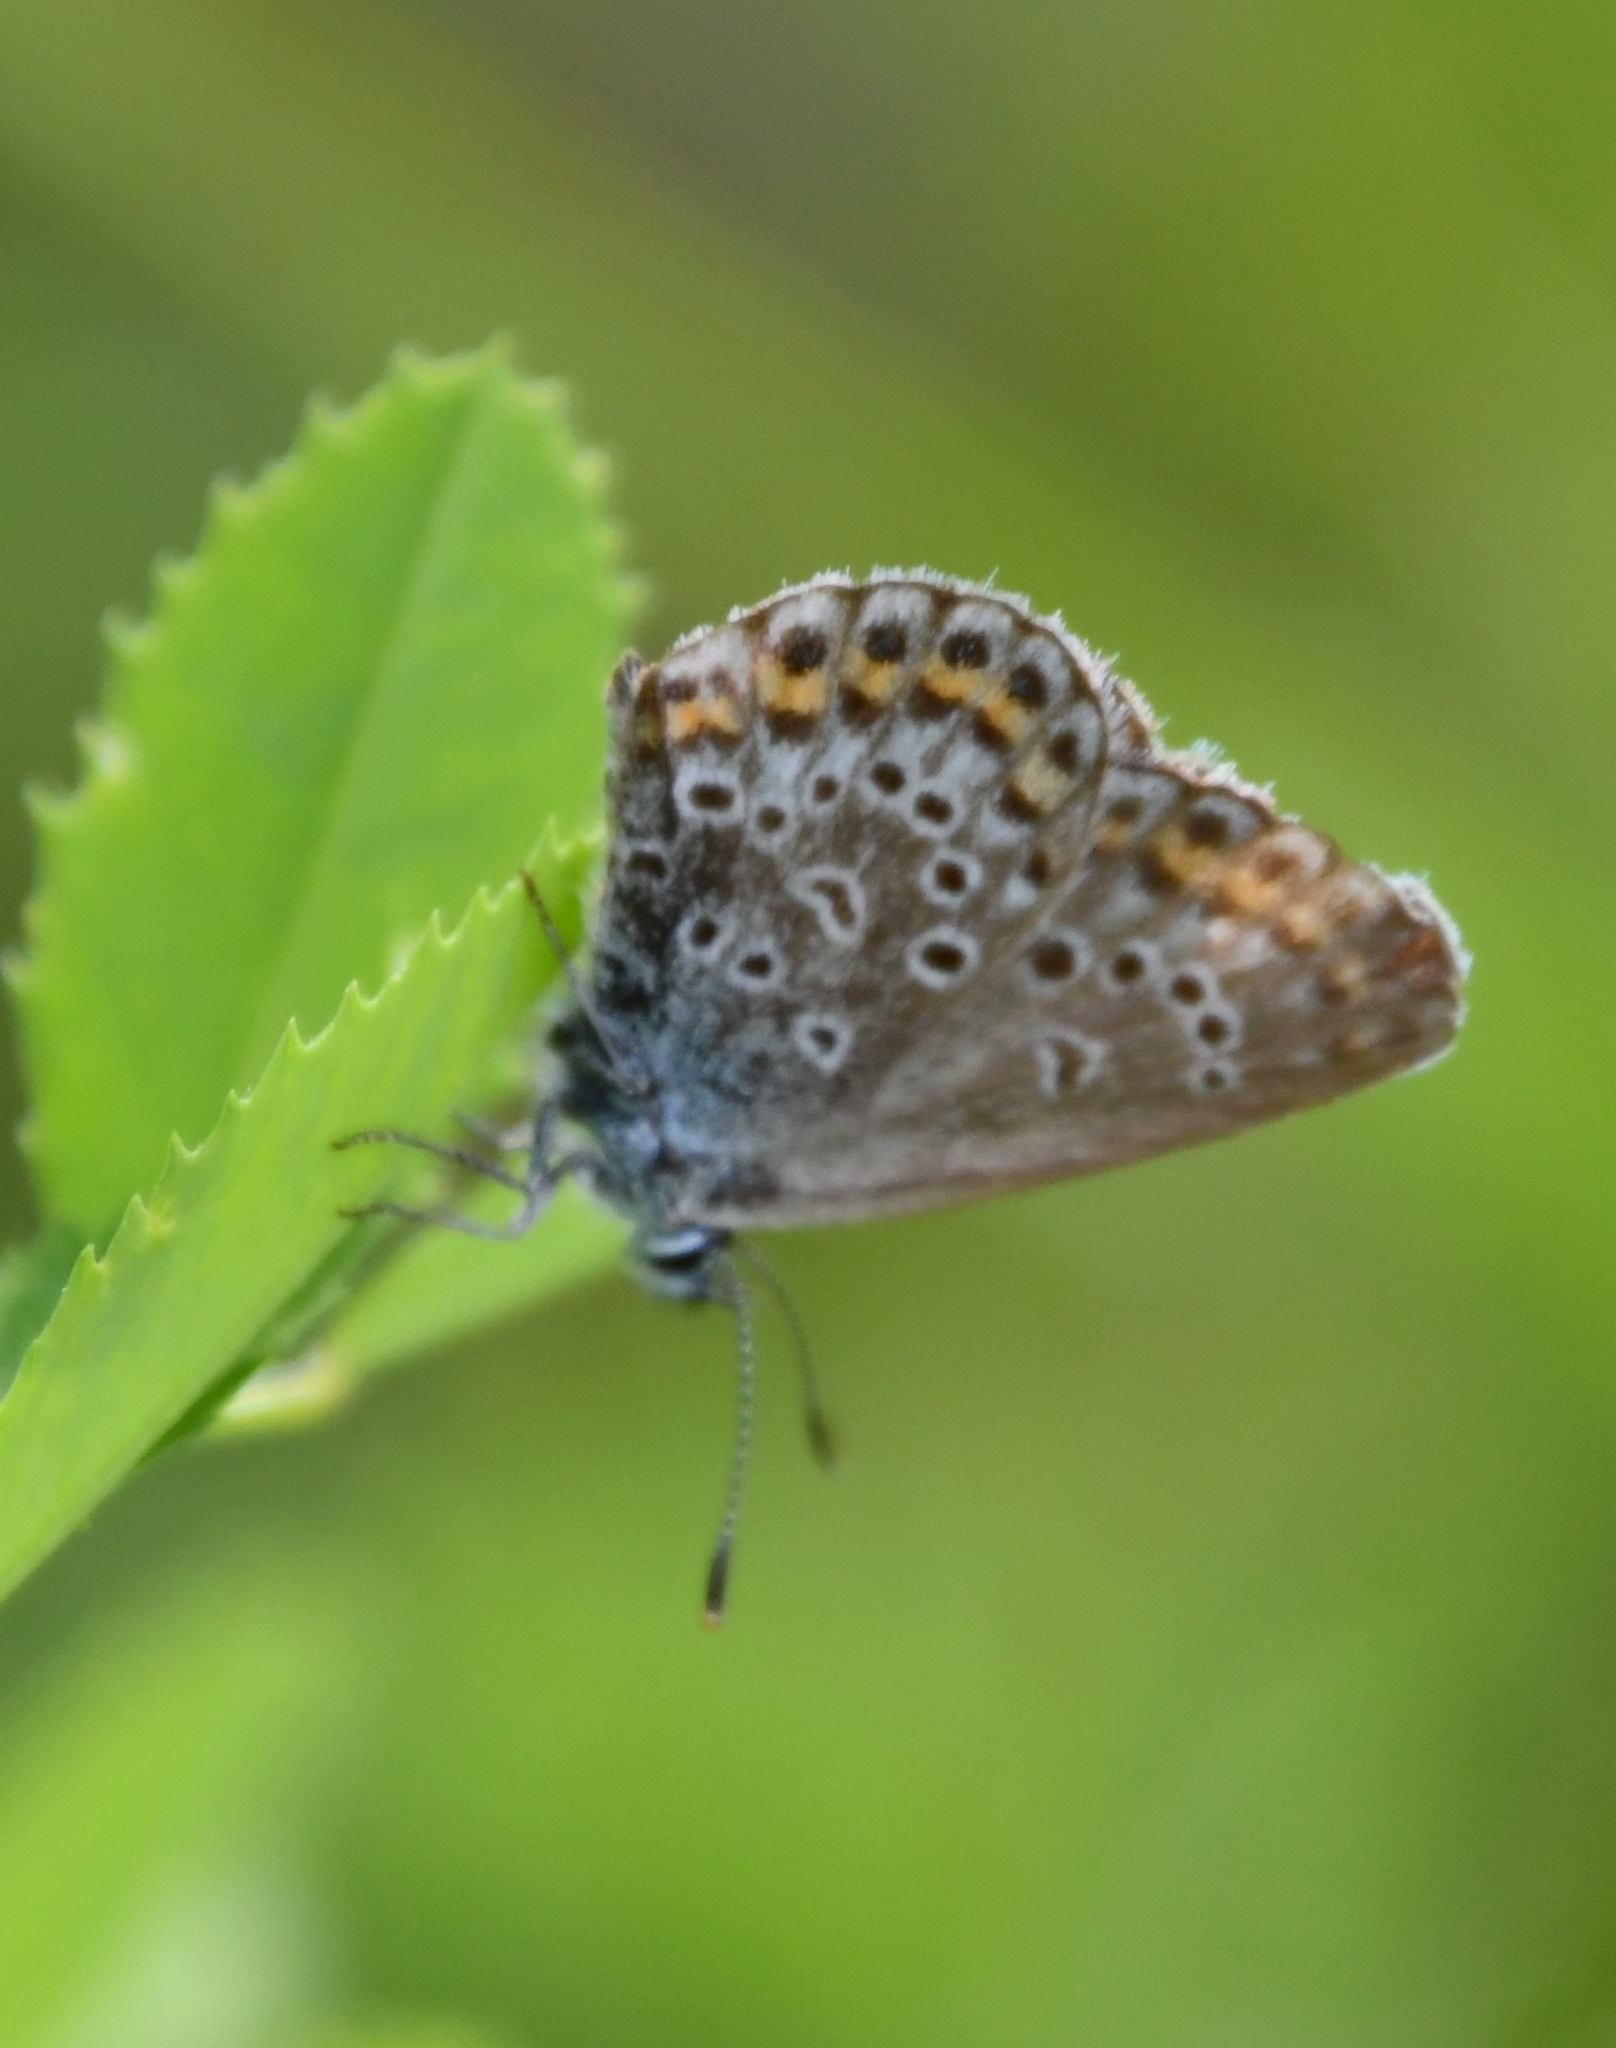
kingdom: Animalia
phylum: Arthropoda
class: Insecta
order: Lepidoptera
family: Lycaenidae
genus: Plebejus
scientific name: Plebejus argus
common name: Silver-studded blue
